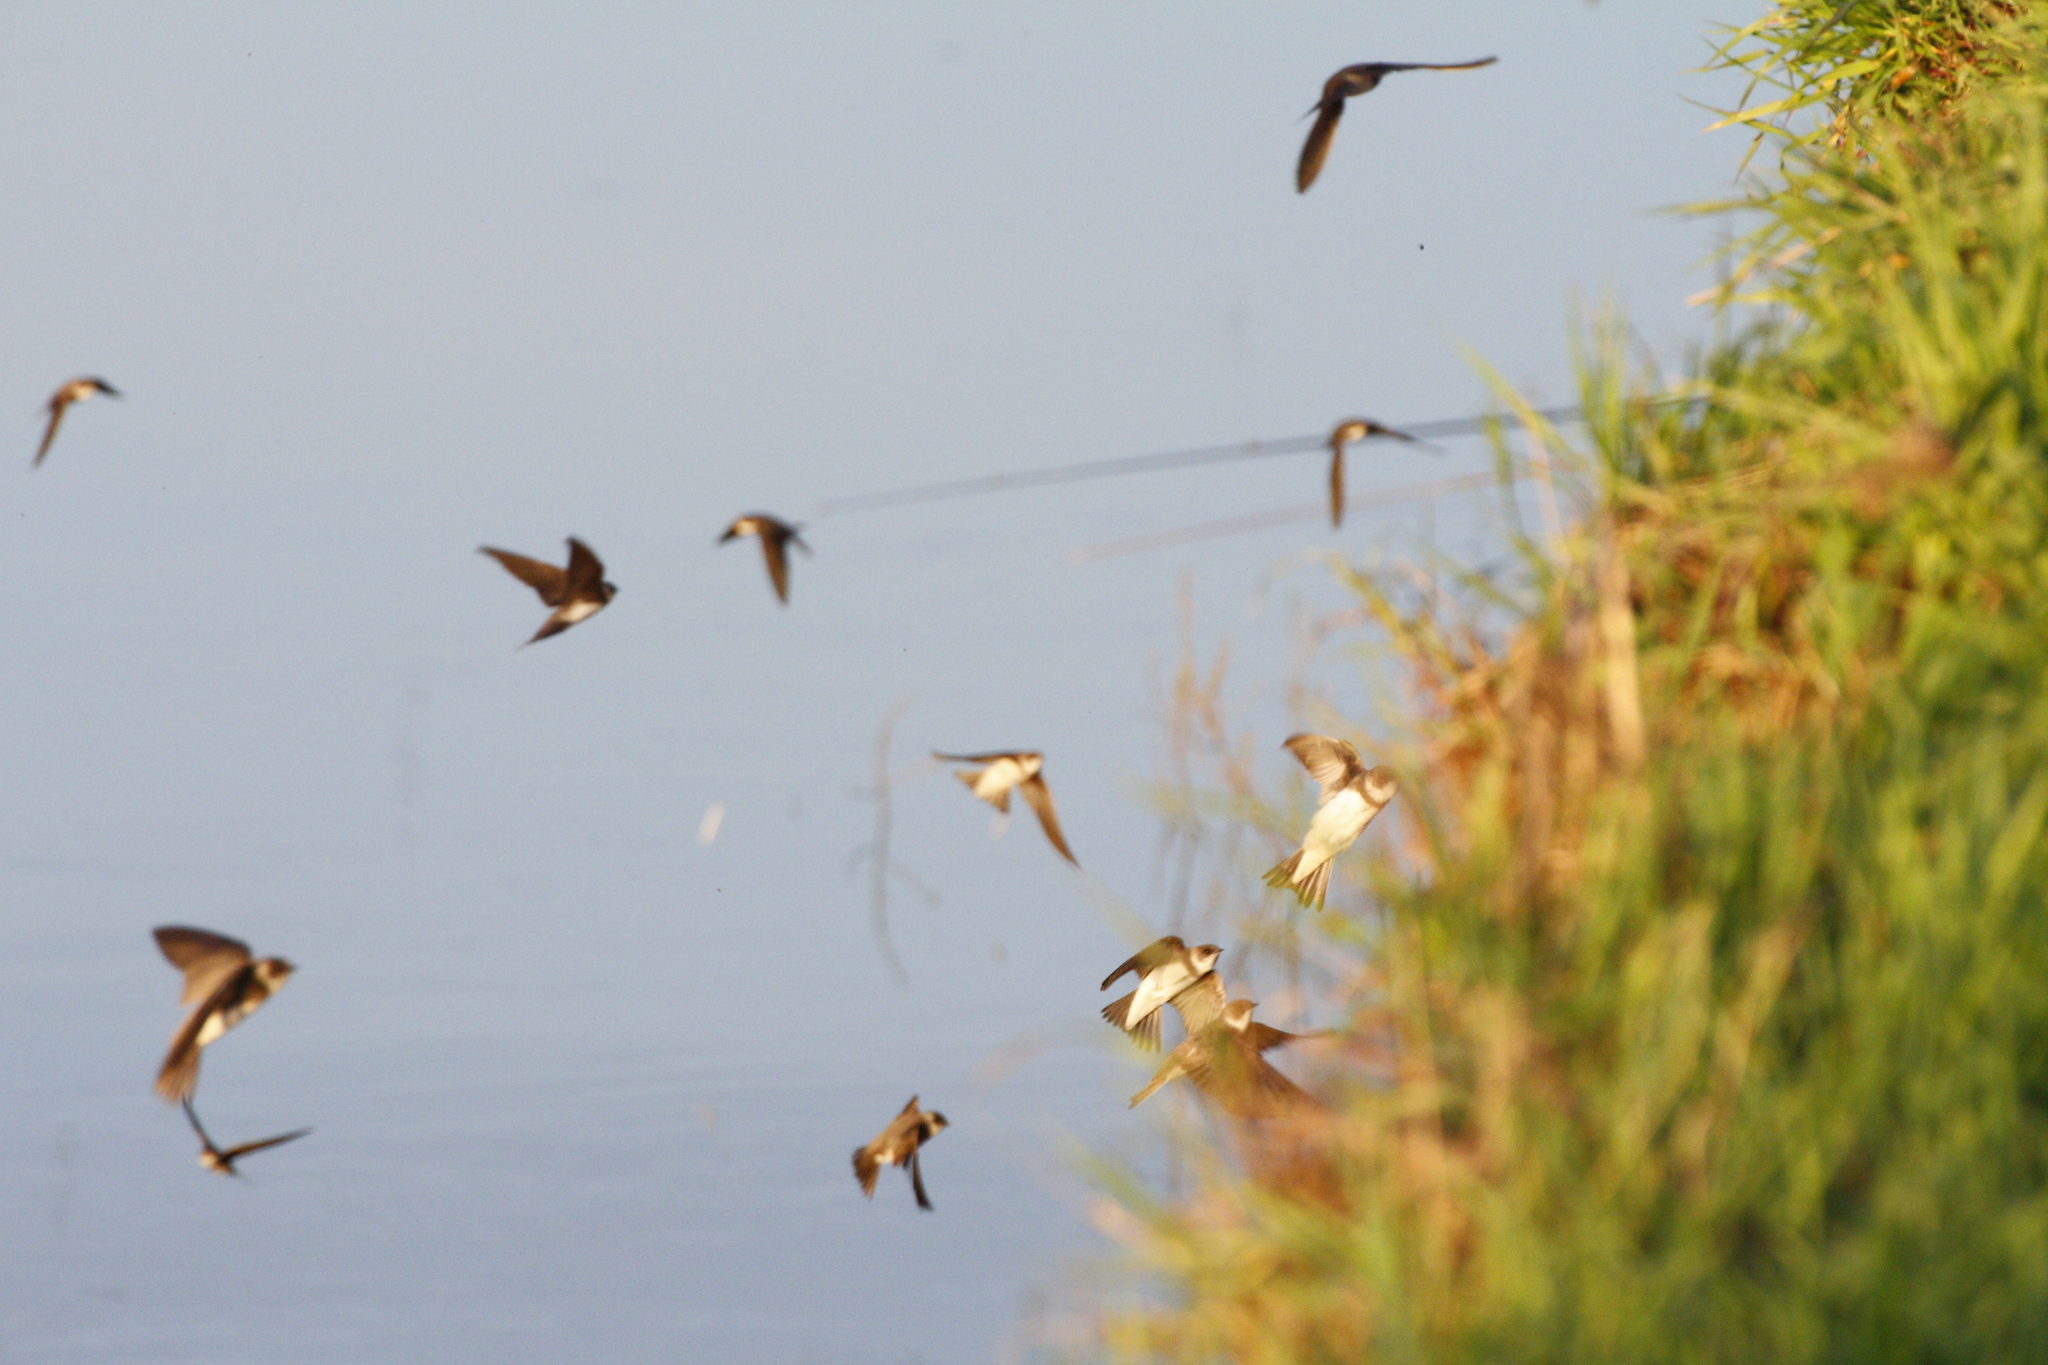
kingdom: Animalia
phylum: Chordata
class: Aves
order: Passeriformes
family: Hirundinidae
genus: Riparia
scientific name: Riparia riparia
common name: Sand martin
